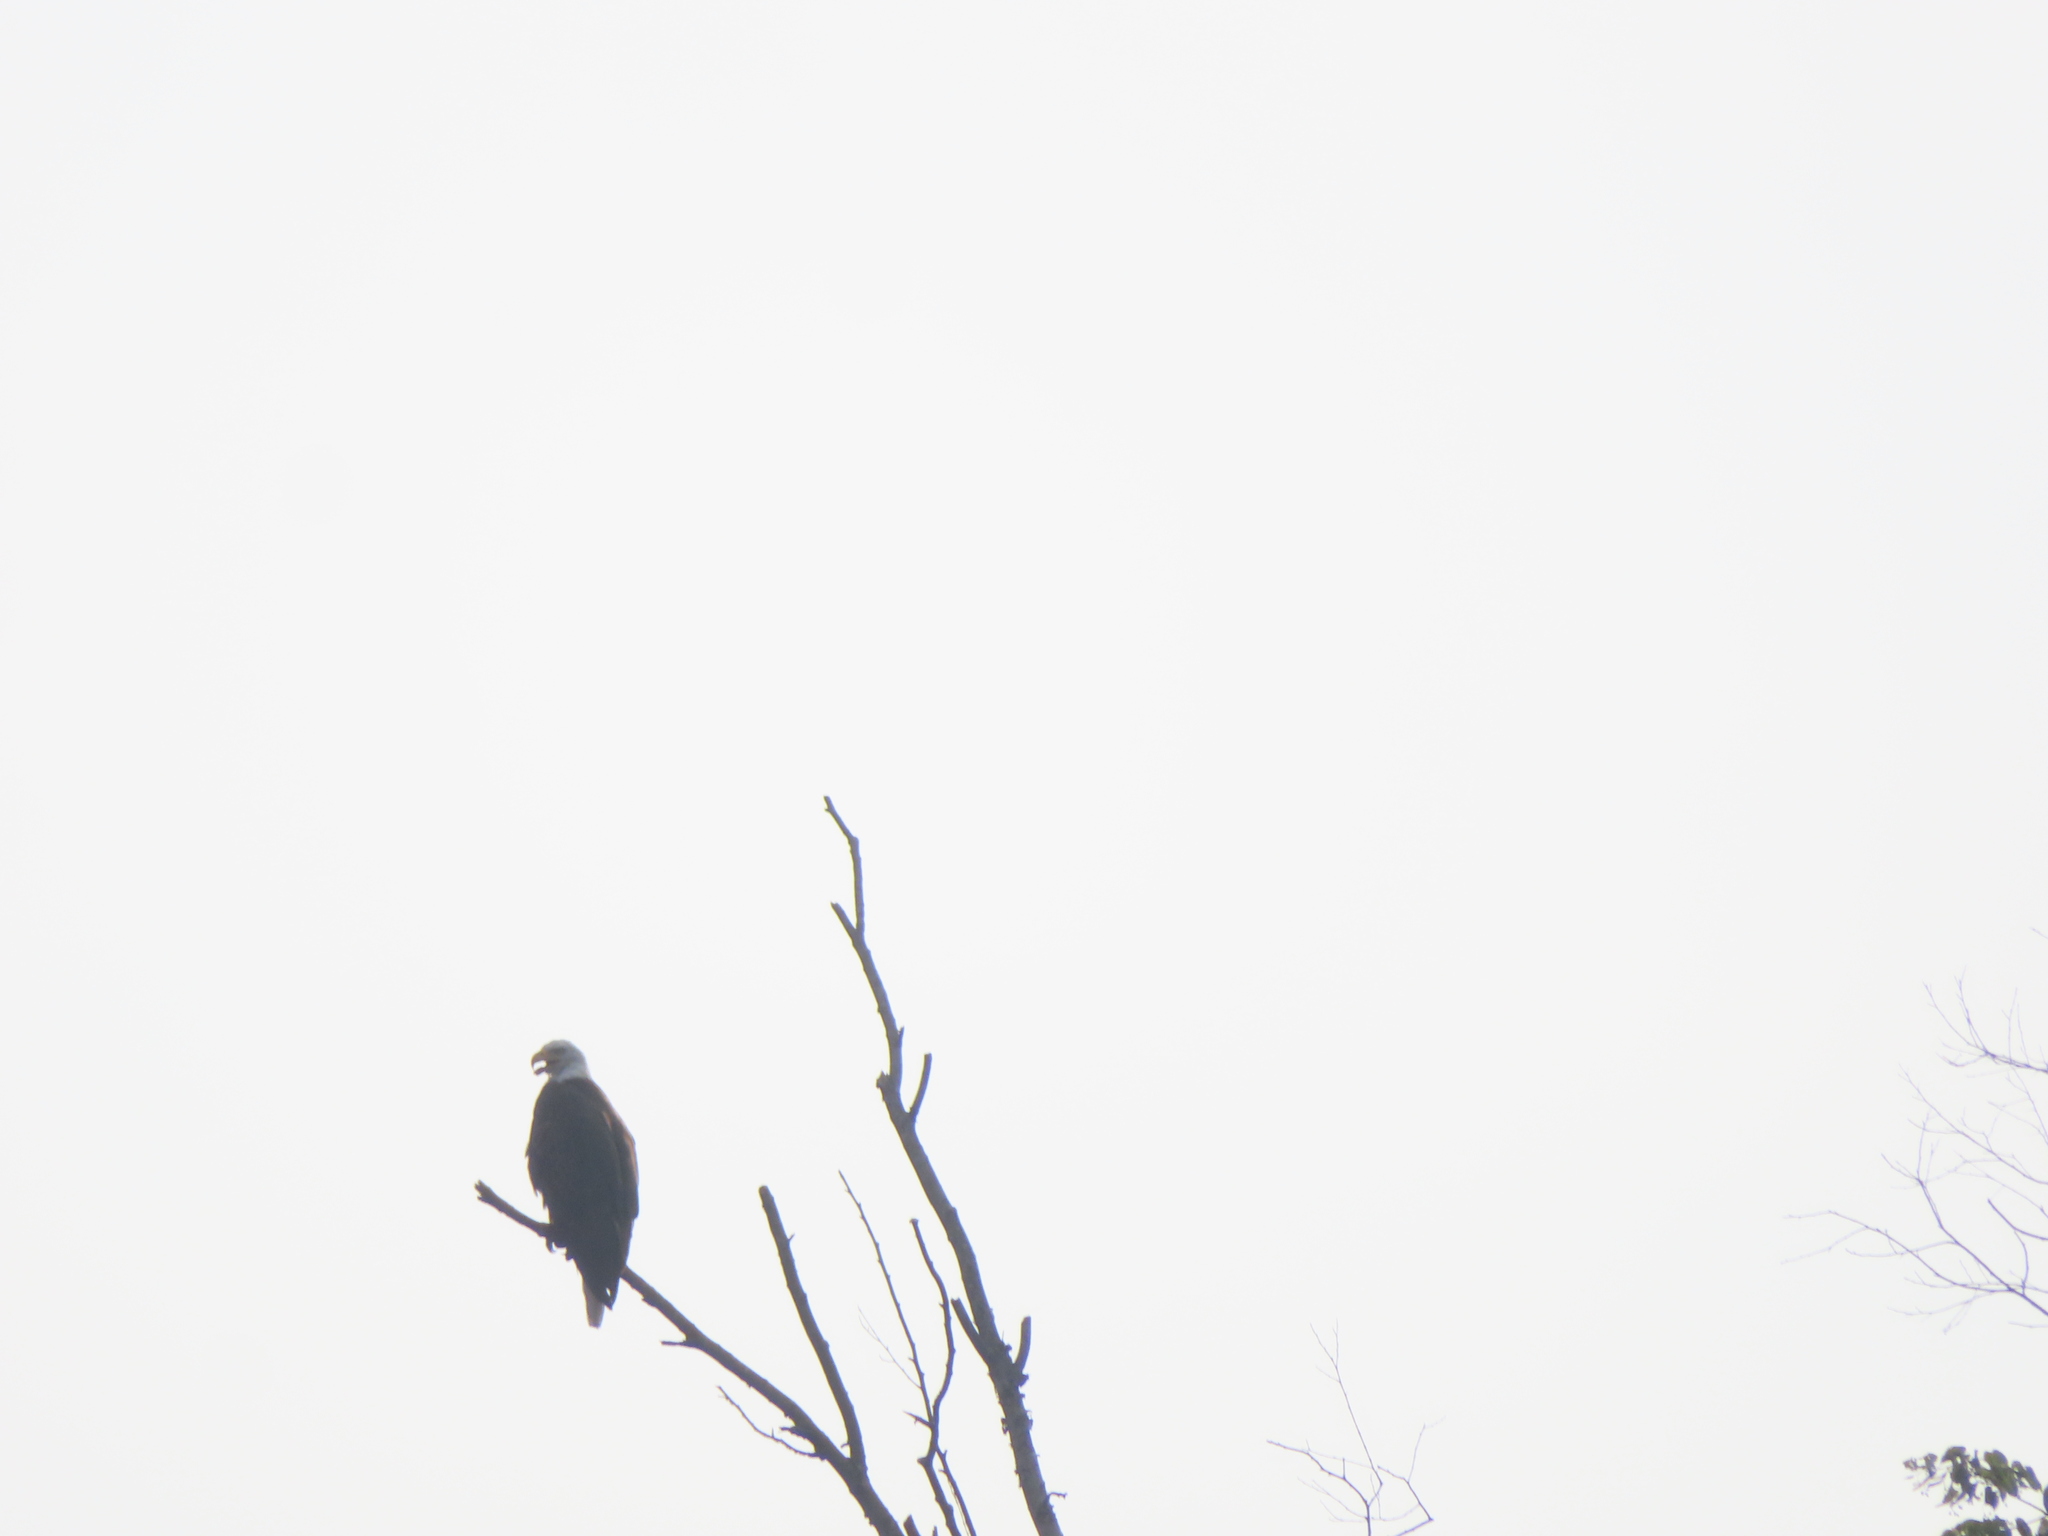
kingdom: Animalia
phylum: Chordata
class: Aves
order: Accipitriformes
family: Accipitridae
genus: Haliaeetus
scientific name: Haliaeetus leucocephalus
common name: Bald eagle
